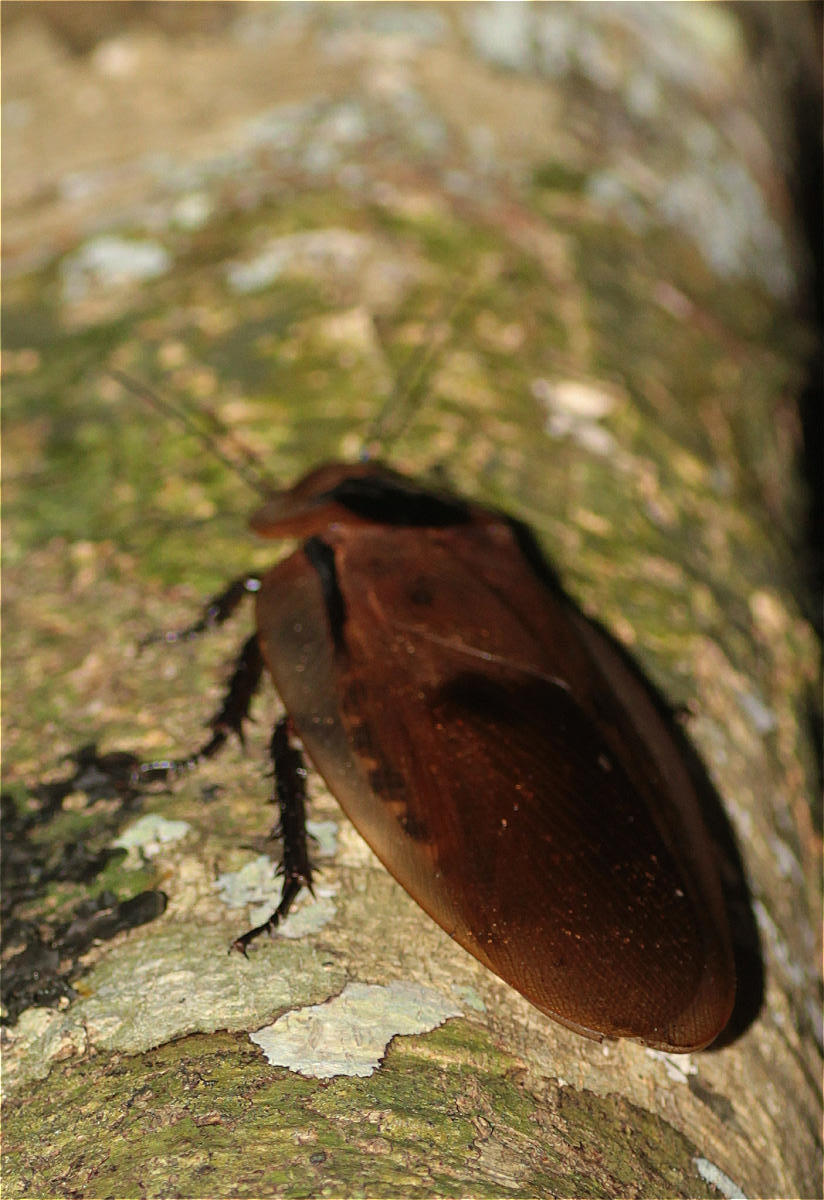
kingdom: Animalia
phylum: Arthropoda
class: Insecta
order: Blattodea
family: Blaberidae
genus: Blaberus
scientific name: Blaberus giganteus
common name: Giant cave cockroach
